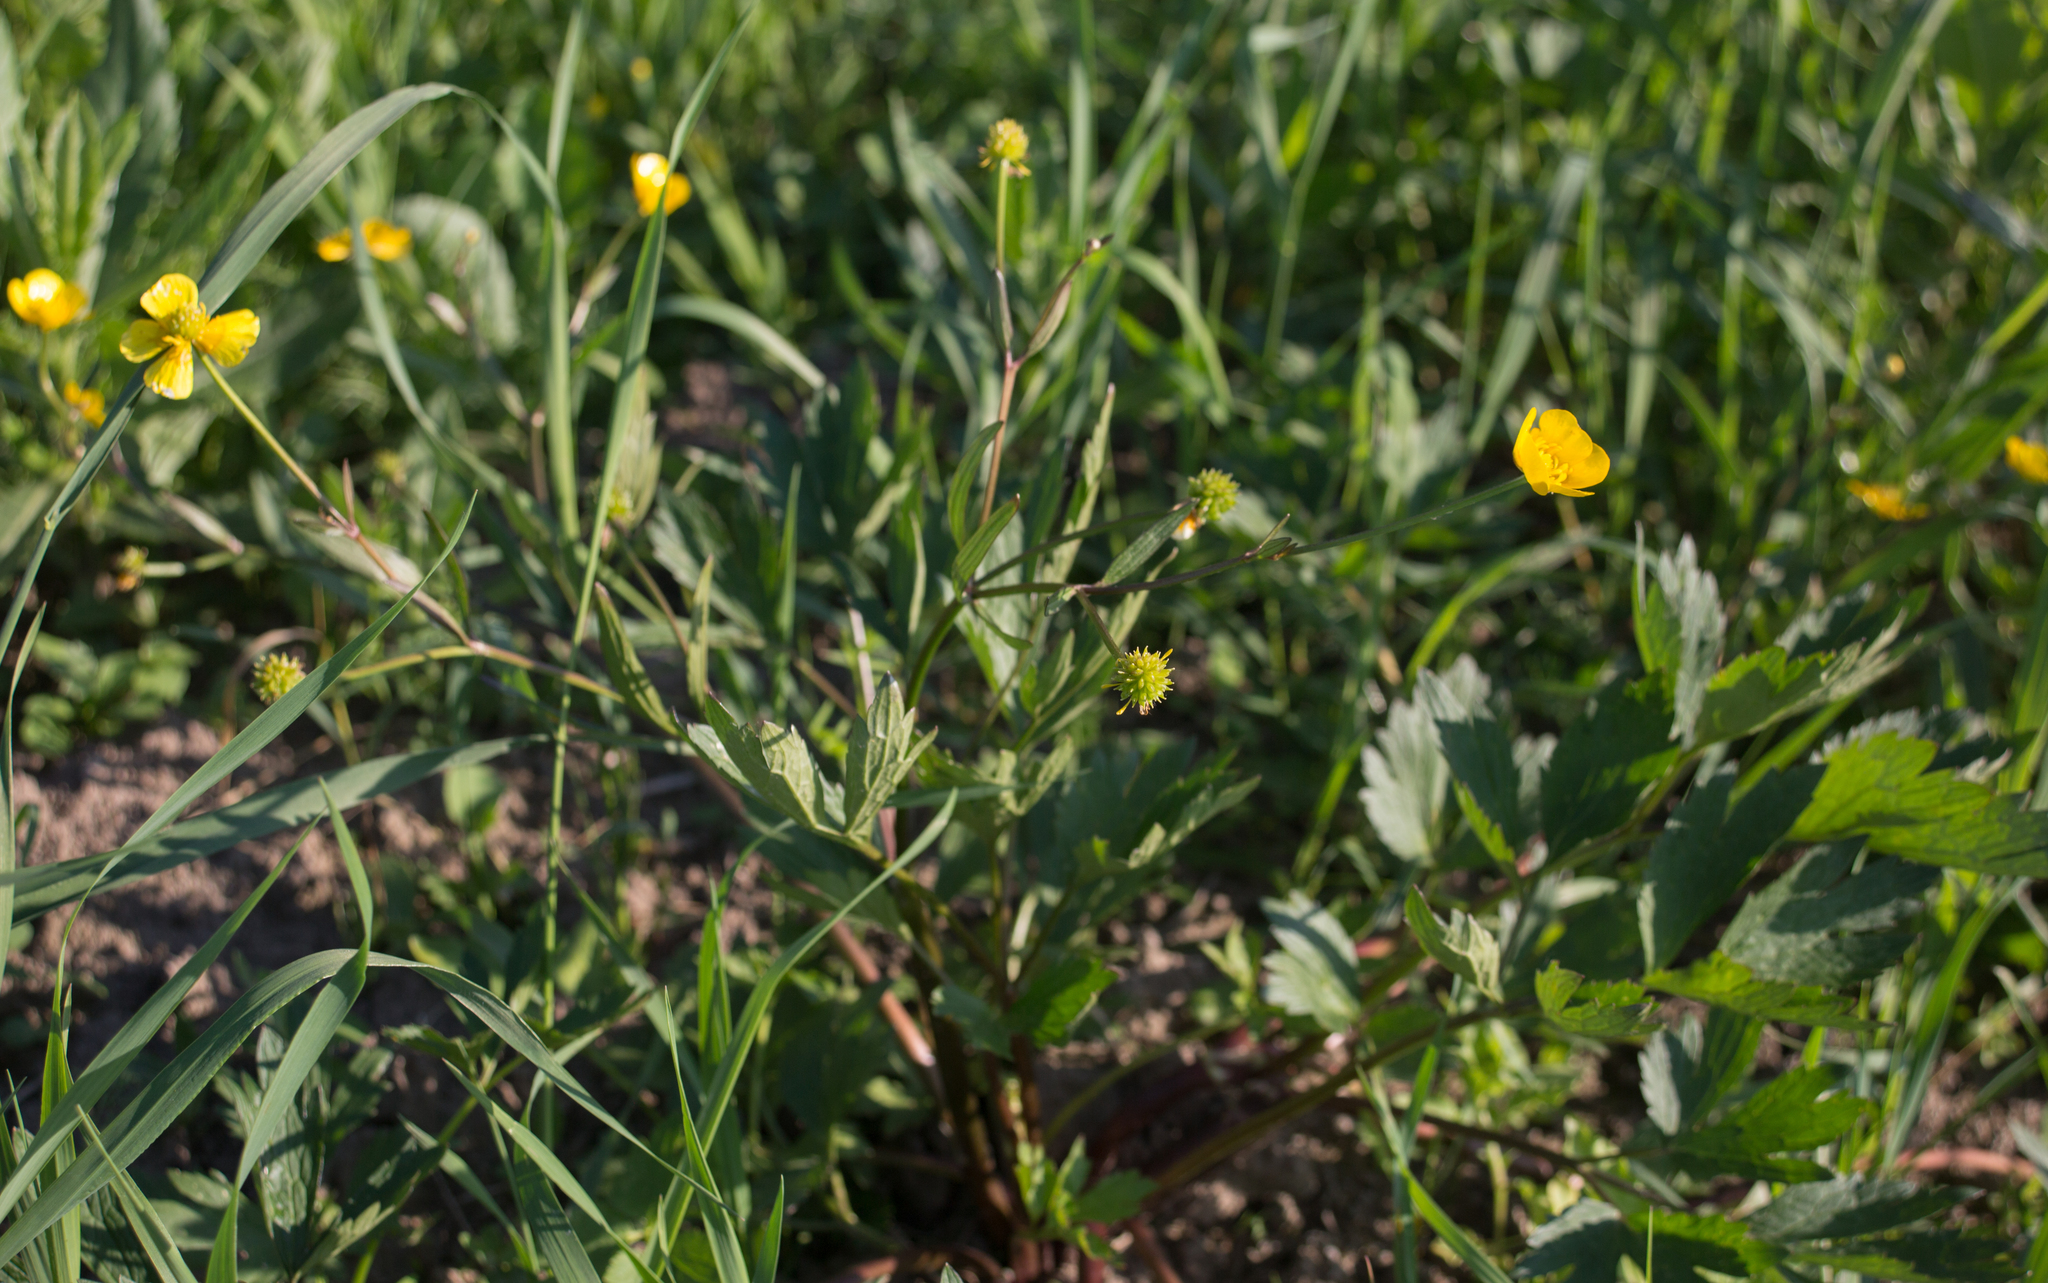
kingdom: Plantae
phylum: Tracheophyta
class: Magnoliopsida
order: Ranunculales
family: Ranunculaceae
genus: Ranunculus
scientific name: Ranunculus repens
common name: Creeping buttercup
